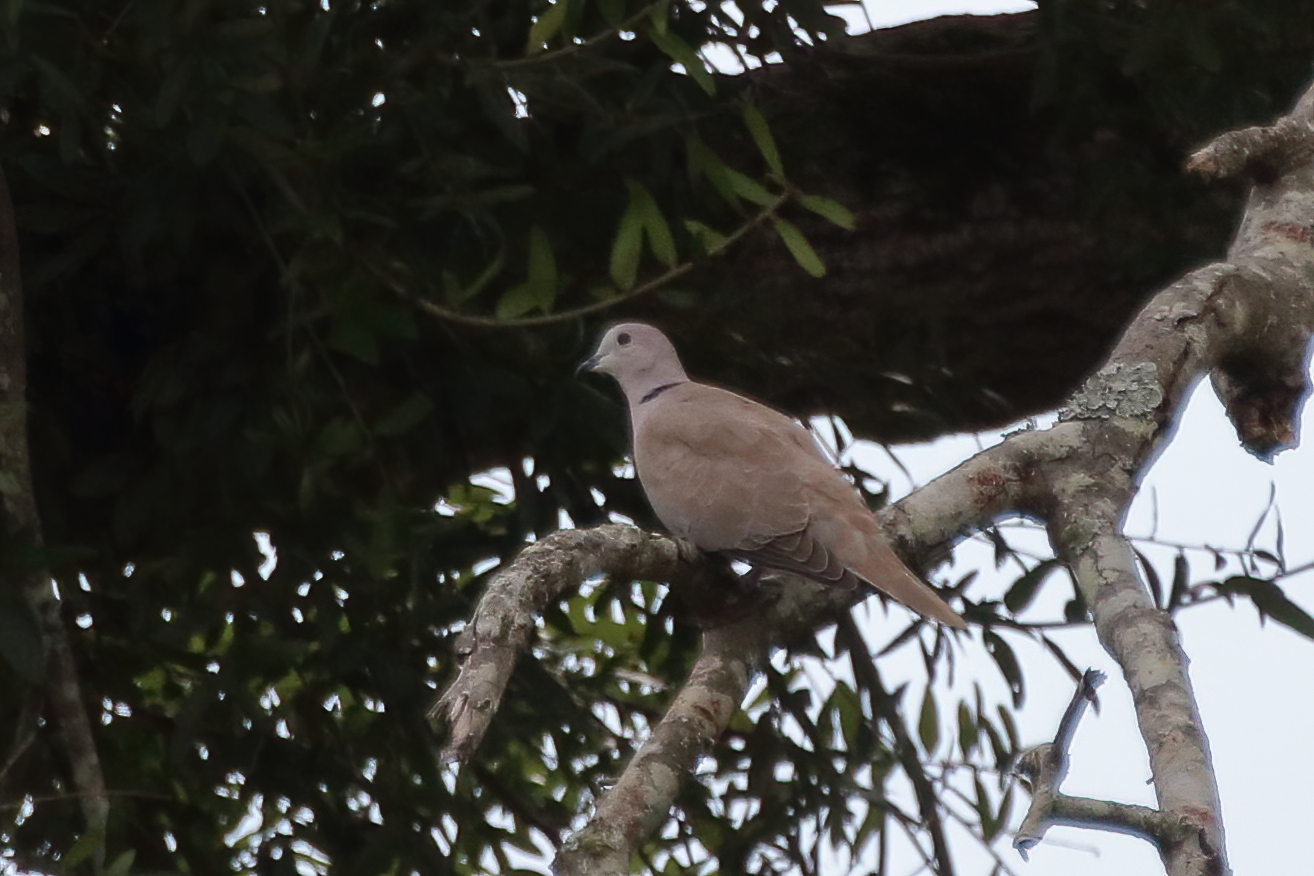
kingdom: Animalia
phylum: Chordata
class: Aves
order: Columbiformes
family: Columbidae
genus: Streptopelia
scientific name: Streptopelia decaocto
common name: Eurasian collared dove
